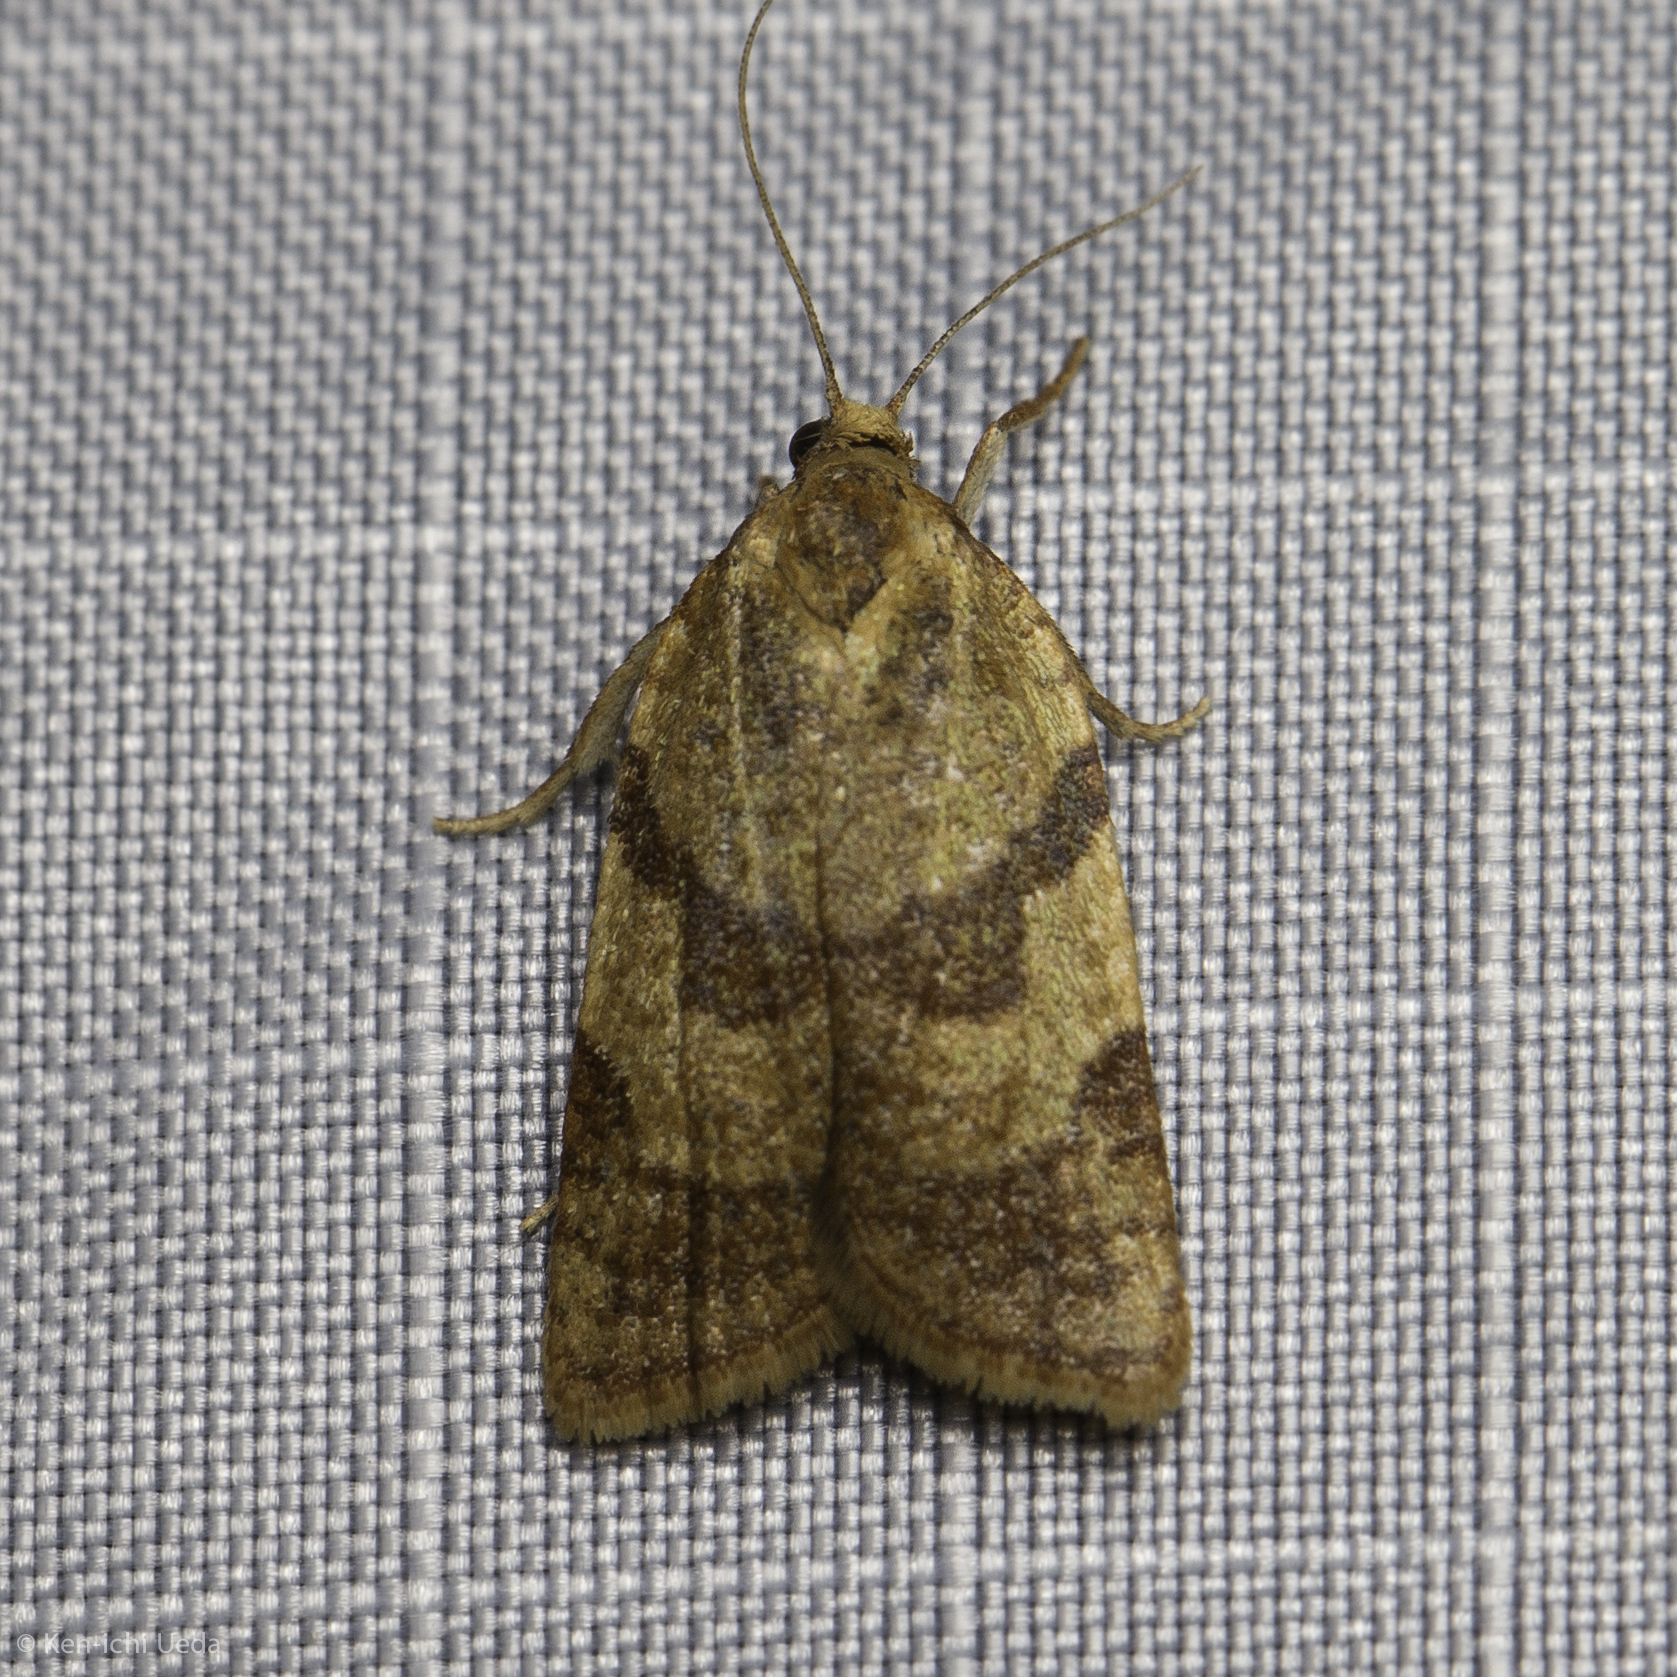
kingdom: Animalia
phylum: Arthropoda
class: Insecta
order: Lepidoptera
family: Tortricidae
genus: Sparganothis
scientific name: Sparganothis senecionana
